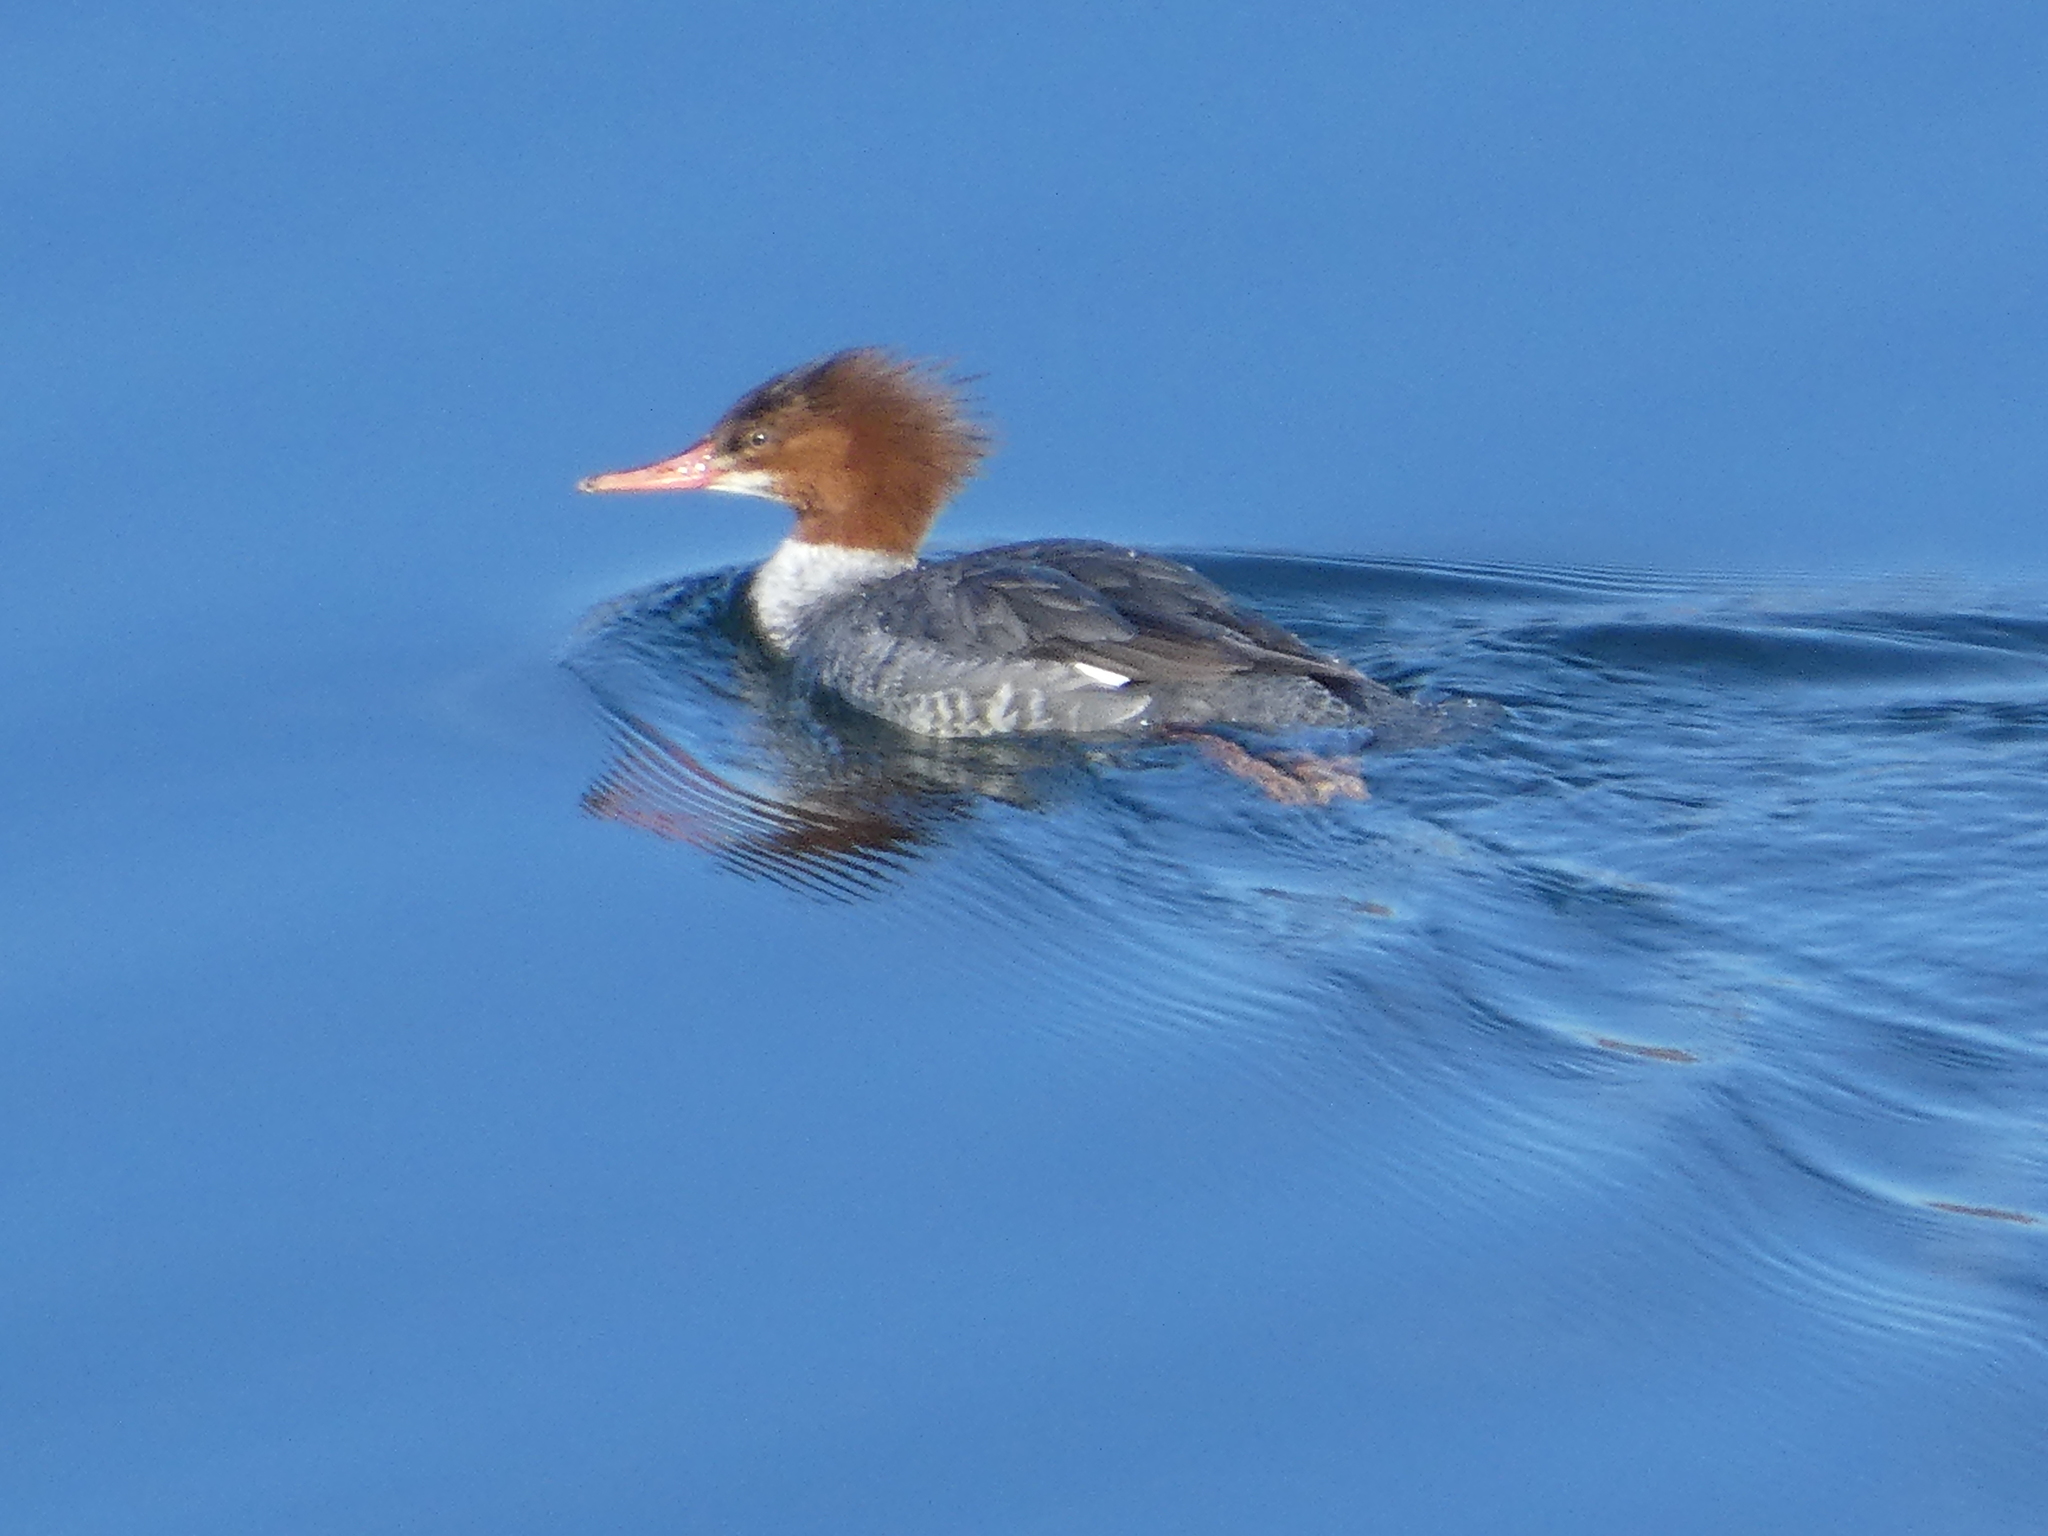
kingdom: Animalia
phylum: Chordata
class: Aves
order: Anseriformes
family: Anatidae
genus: Mergus
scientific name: Mergus merganser
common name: Common merganser
